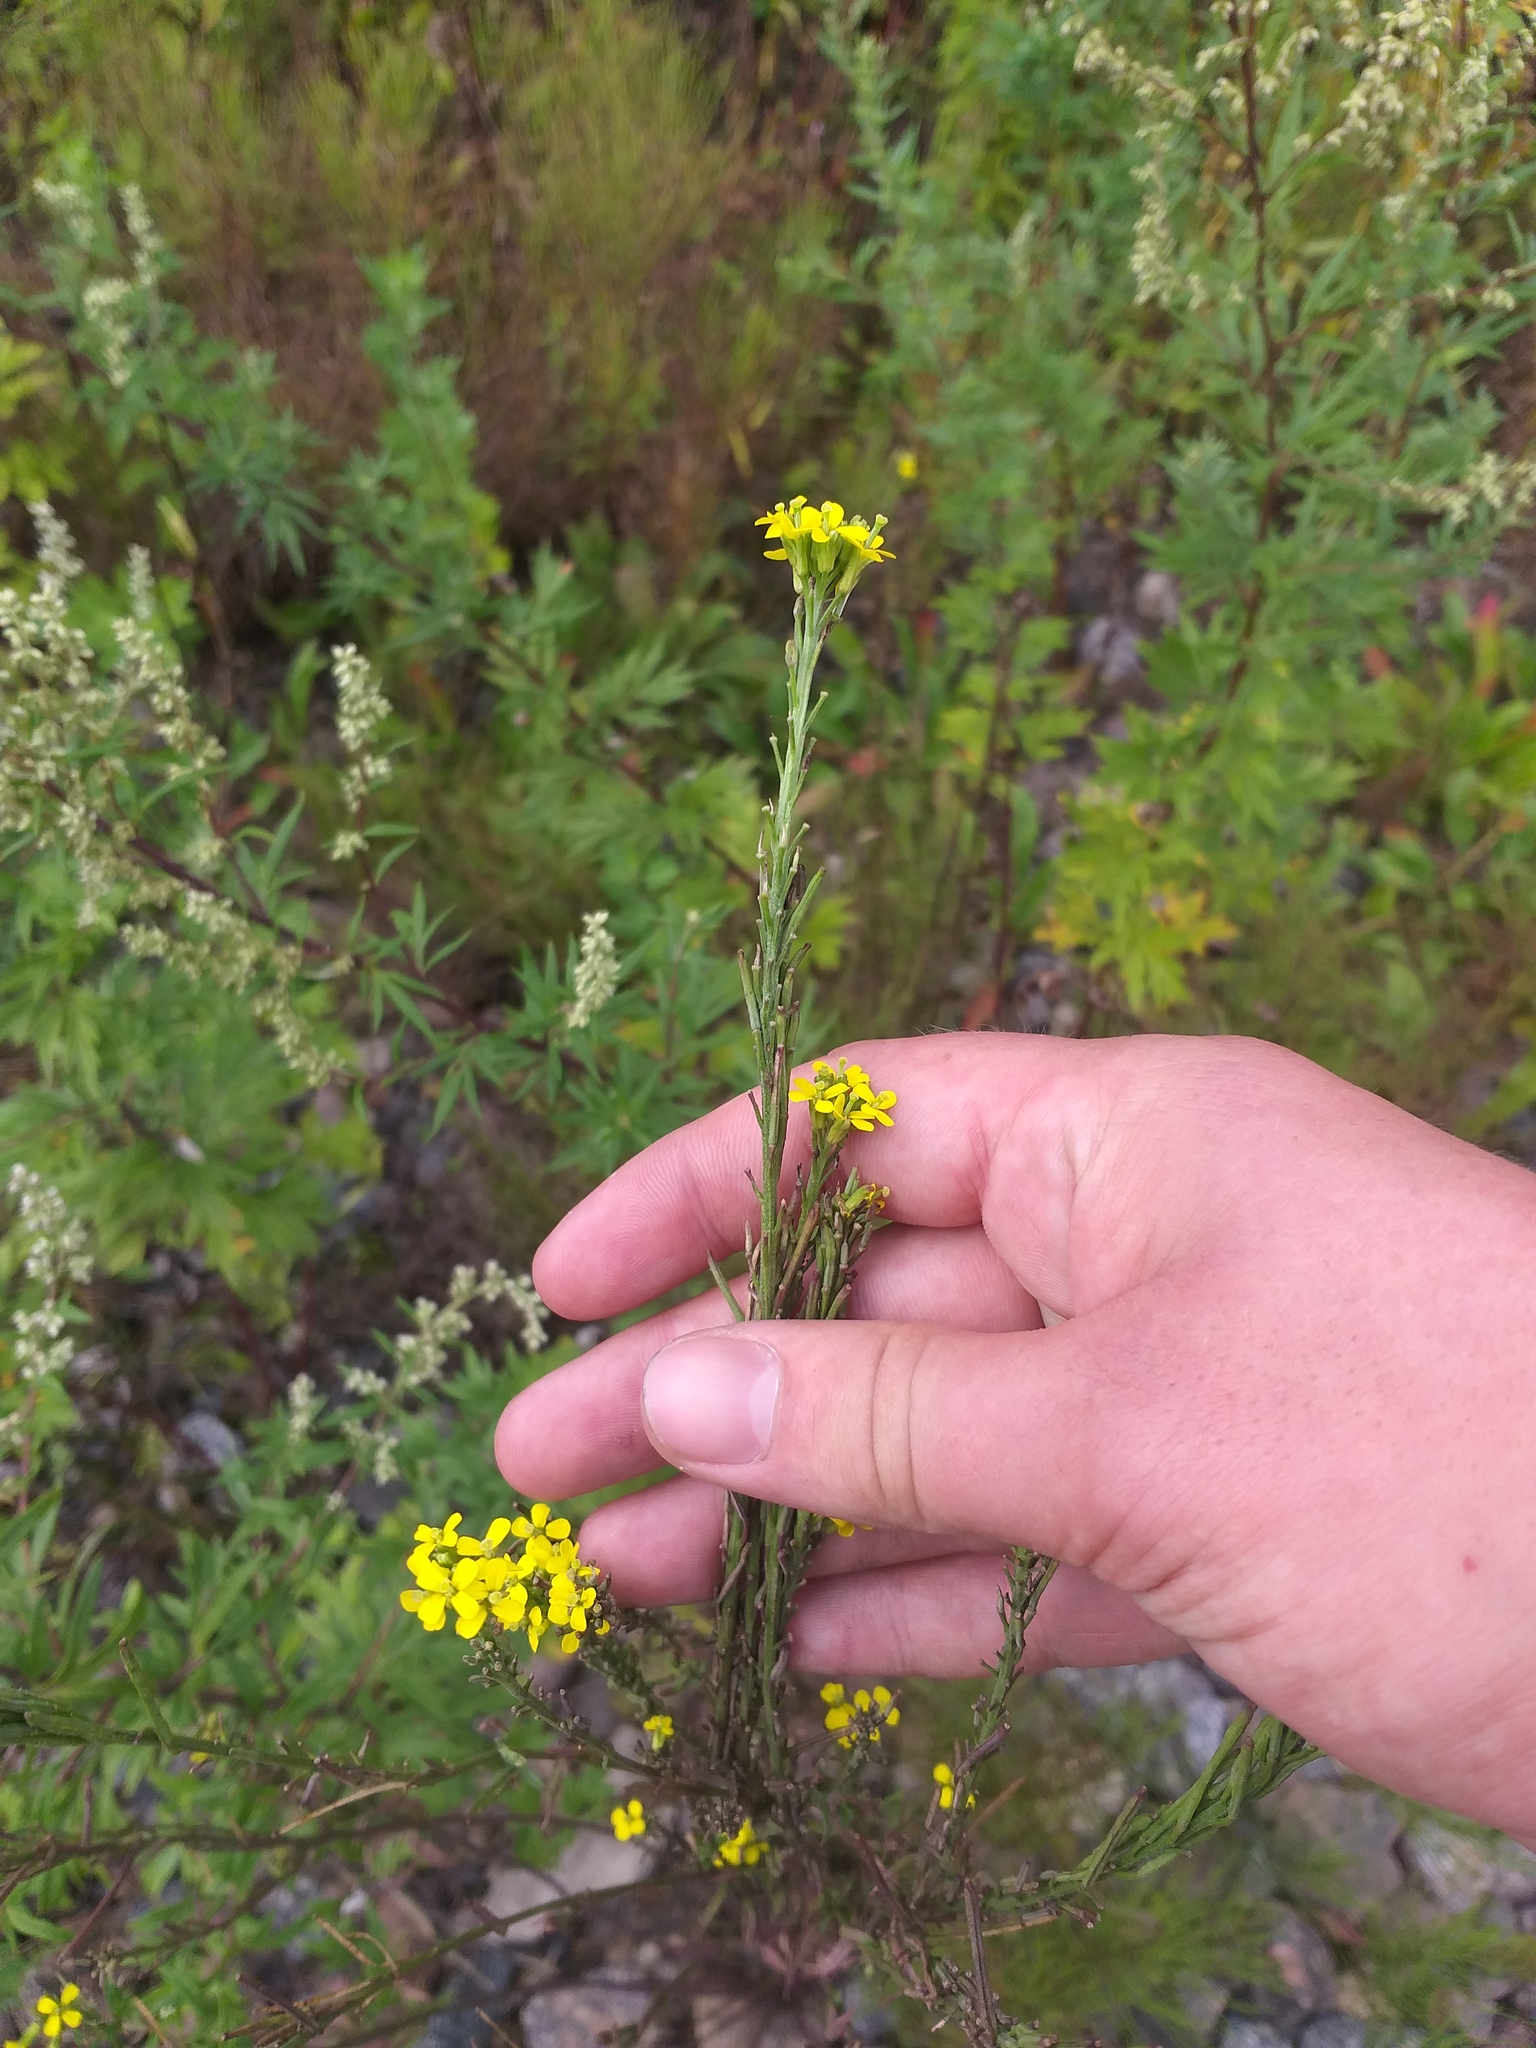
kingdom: Plantae
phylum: Tracheophyta
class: Magnoliopsida
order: Brassicales
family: Brassicaceae
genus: Erysimum
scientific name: Erysimum hieraciifolium
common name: European wallflower
